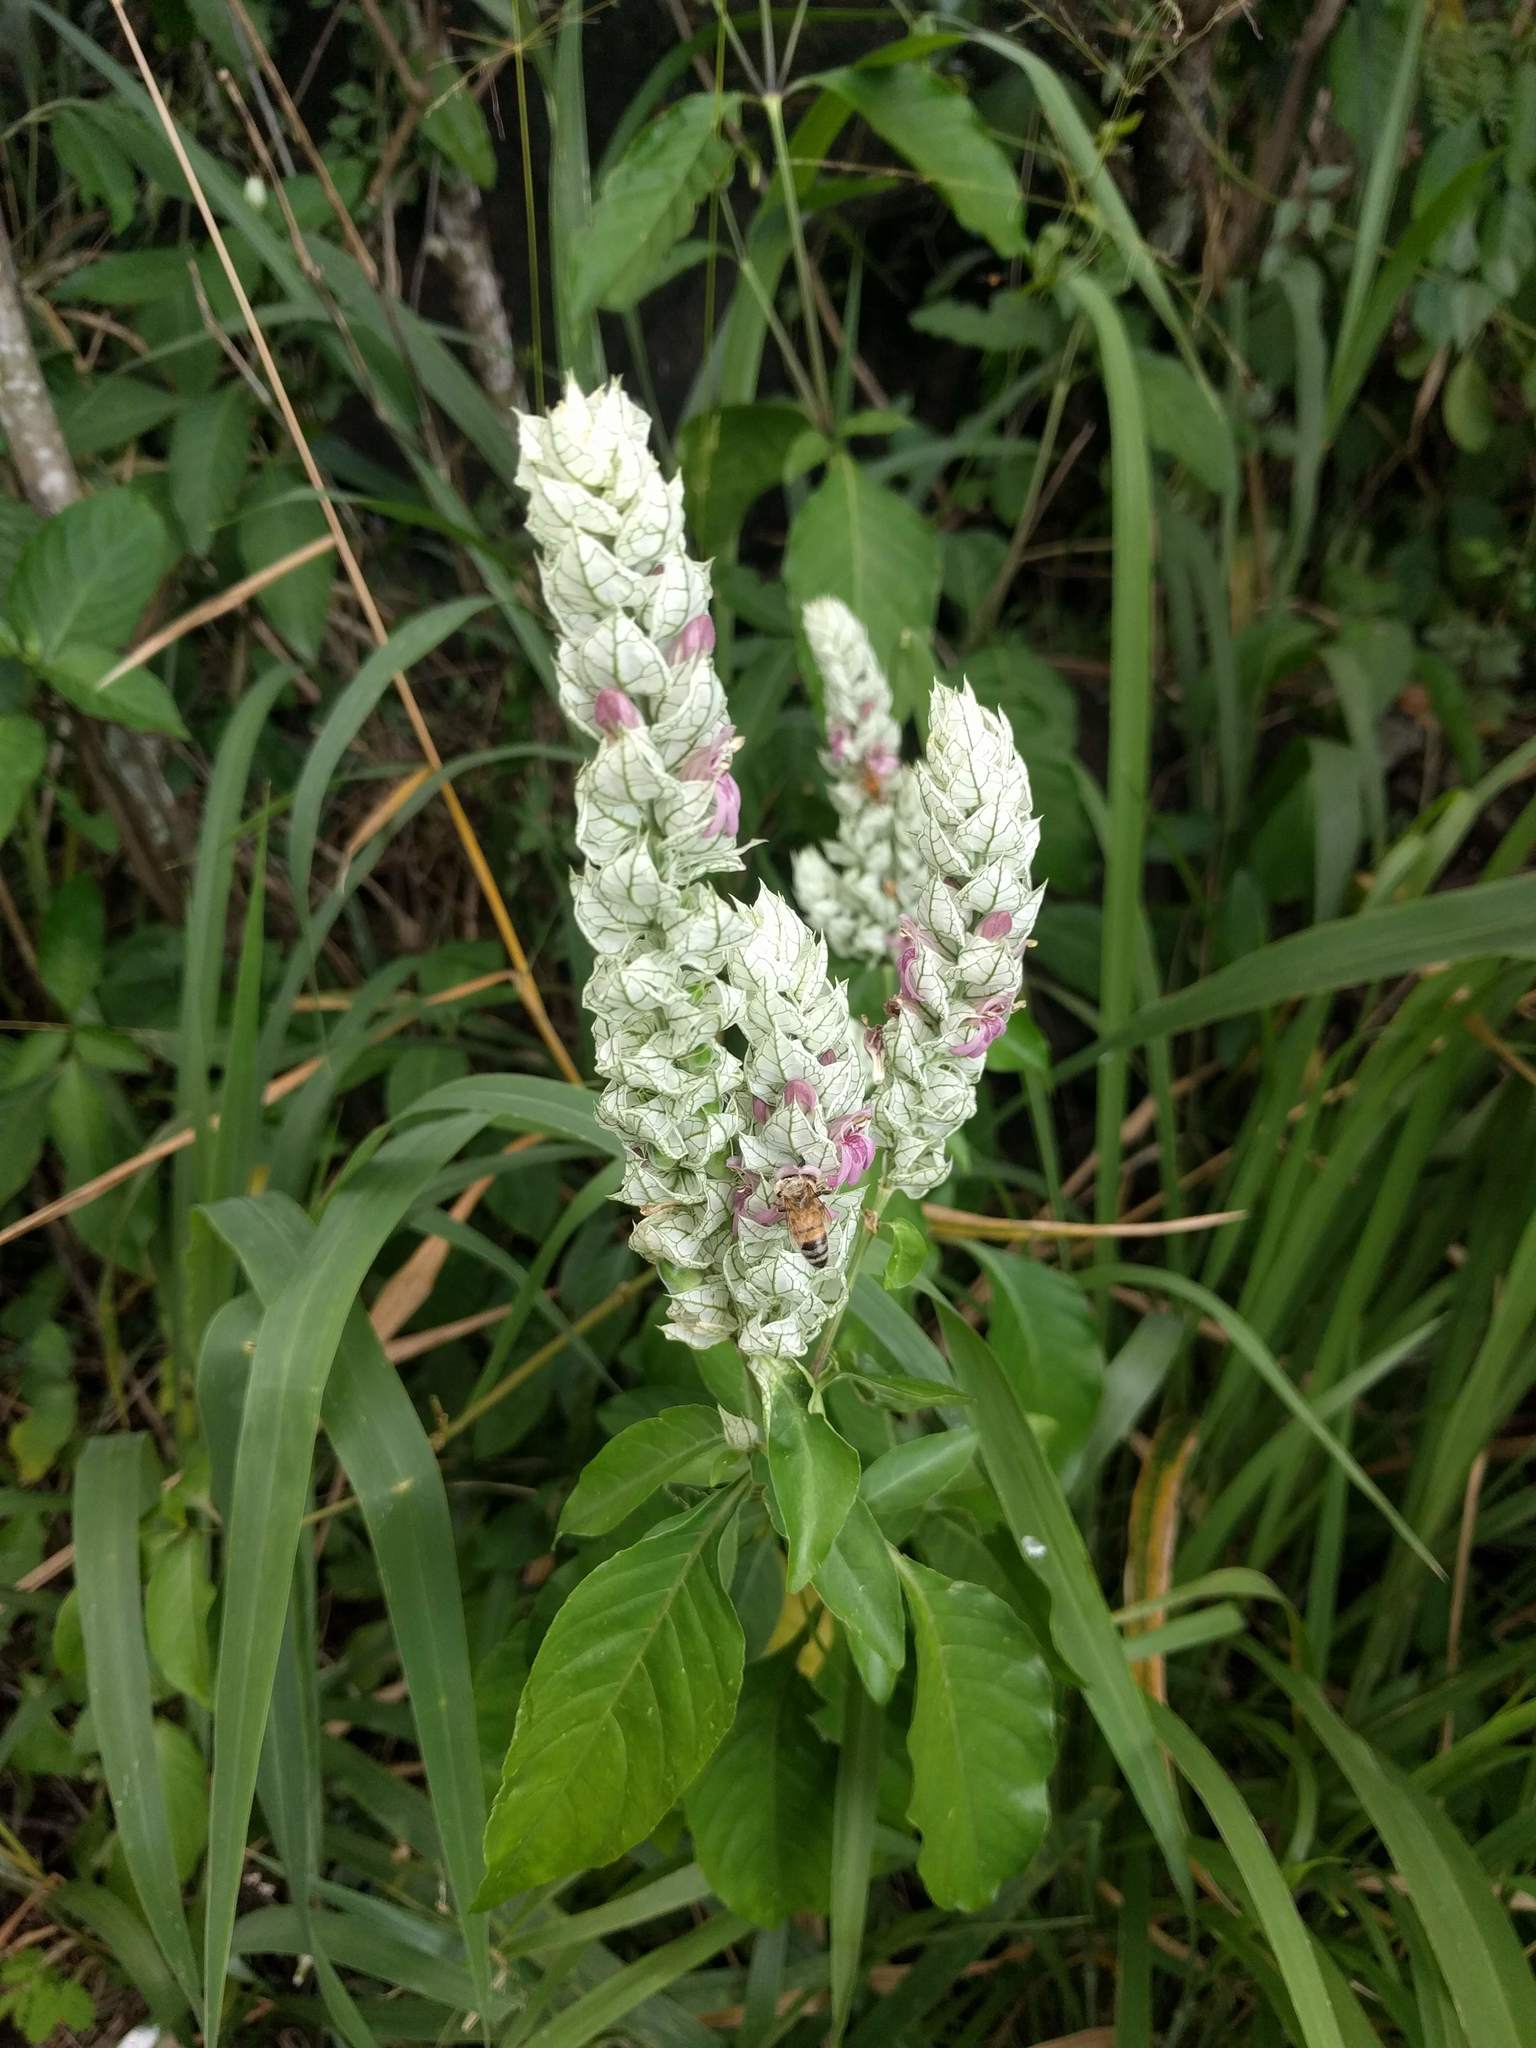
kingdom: Plantae
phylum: Tracheophyta
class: Magnoliopsida
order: Lamiales
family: Acanthaceae
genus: Justicia
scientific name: Justicia betonica
